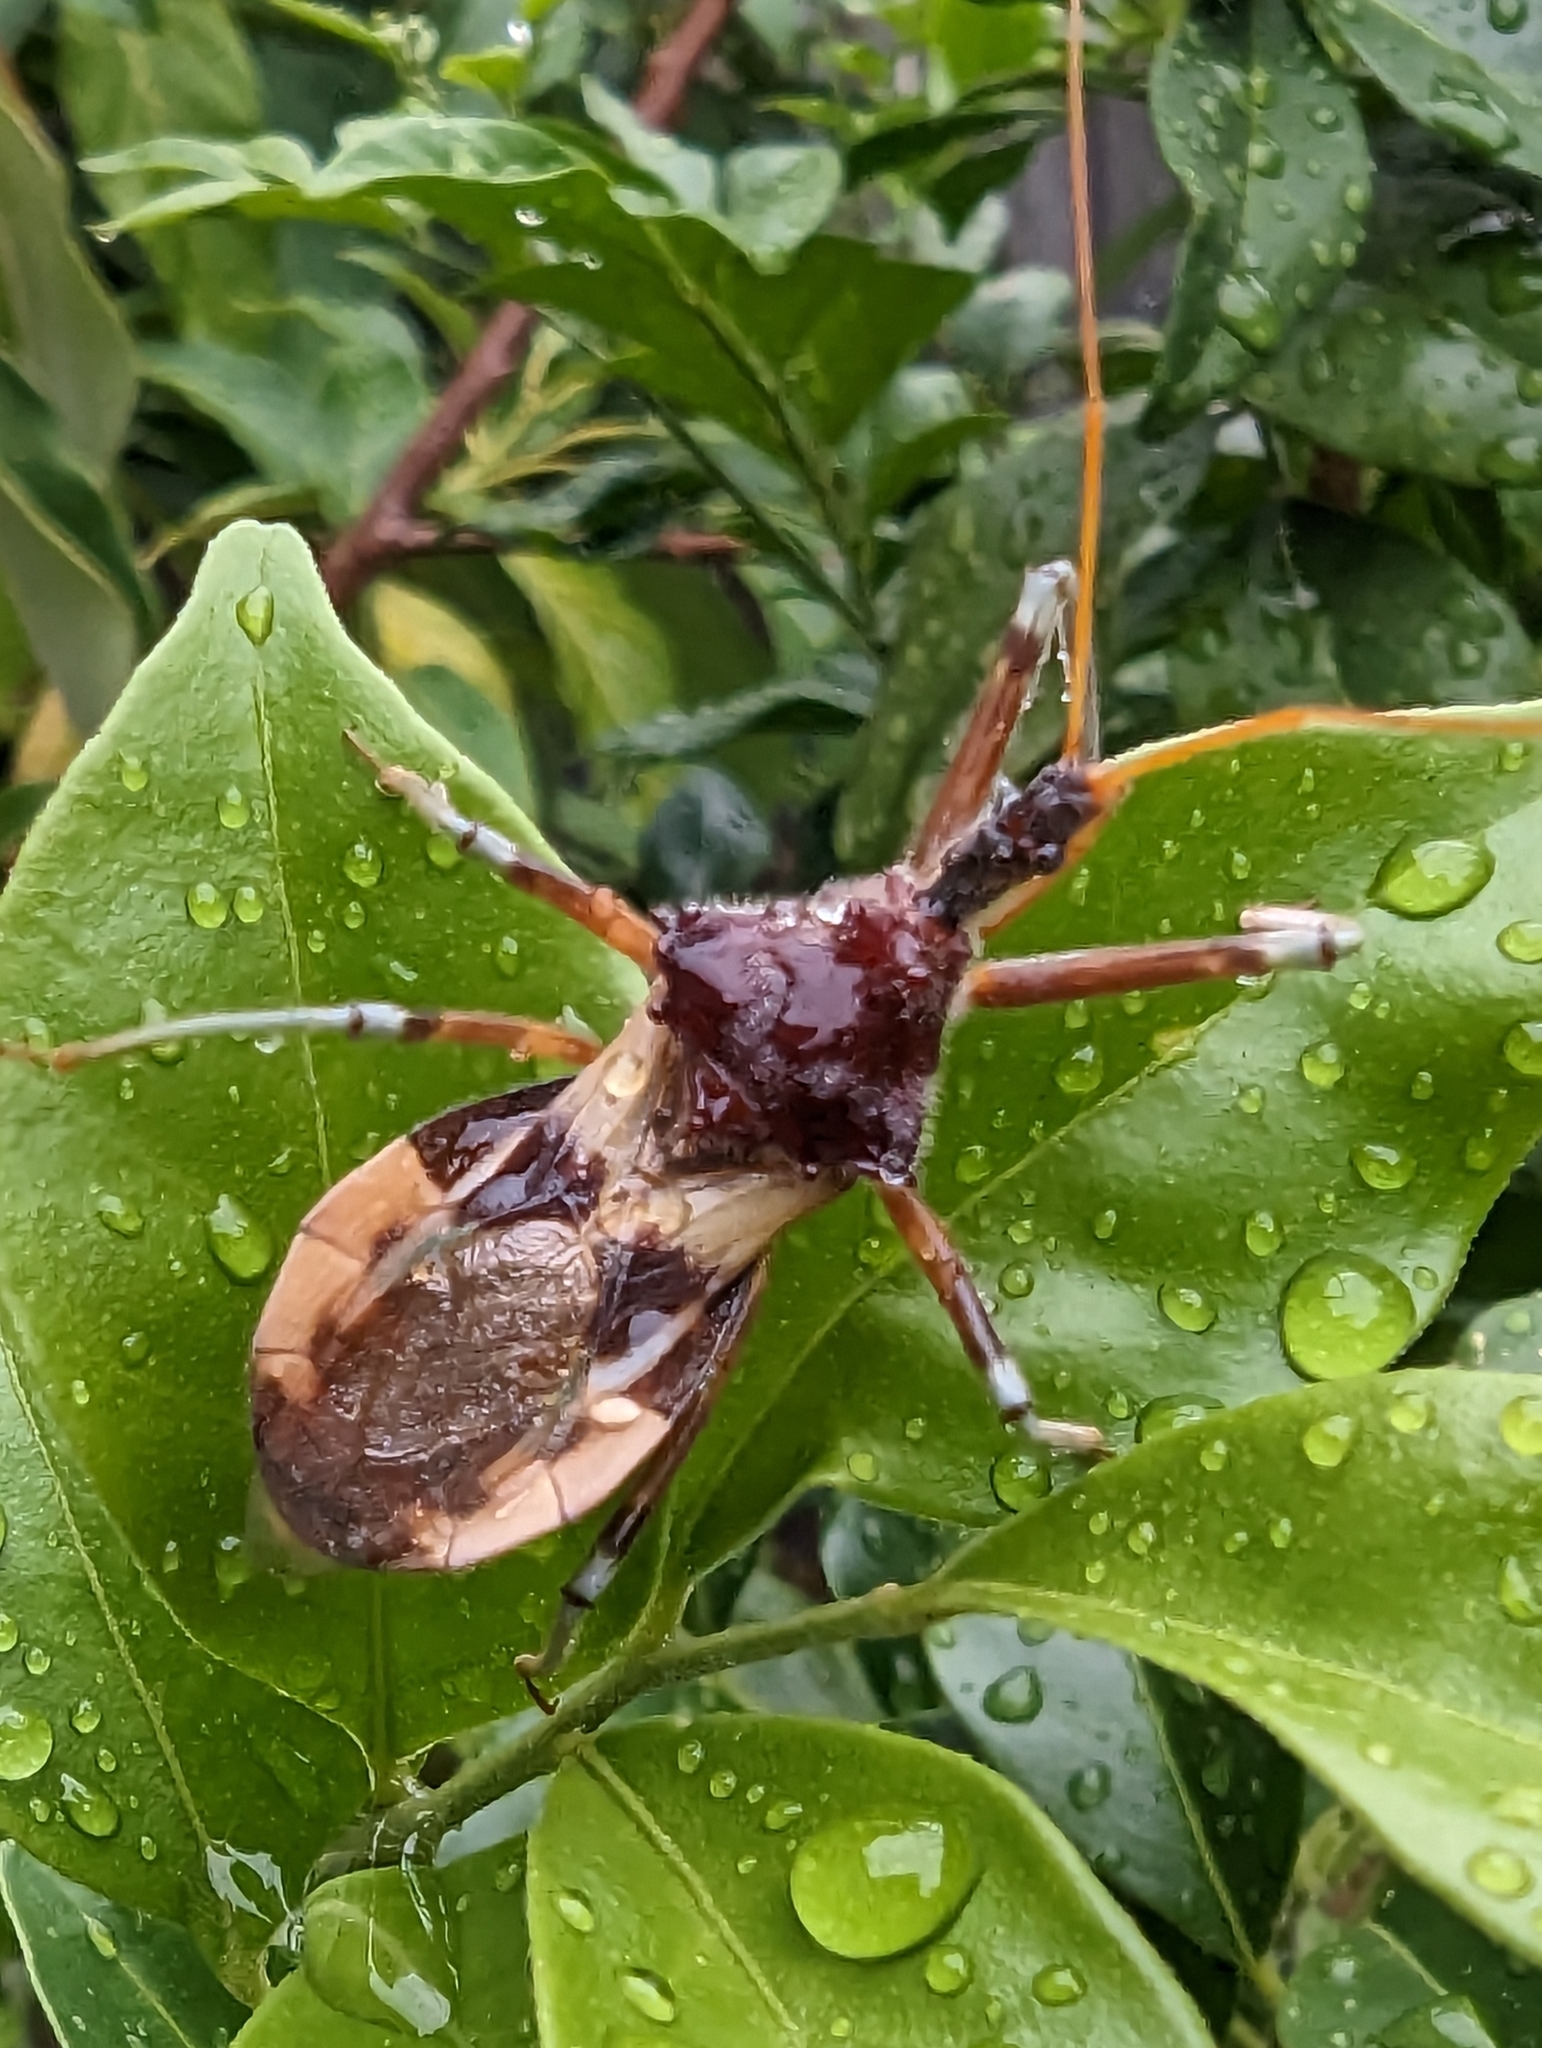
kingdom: Animalia
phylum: Arthropoda
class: Insecta
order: Hemiptera
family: Reduviidae
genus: Pristhesancus
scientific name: Pristhesancus plagipennis
